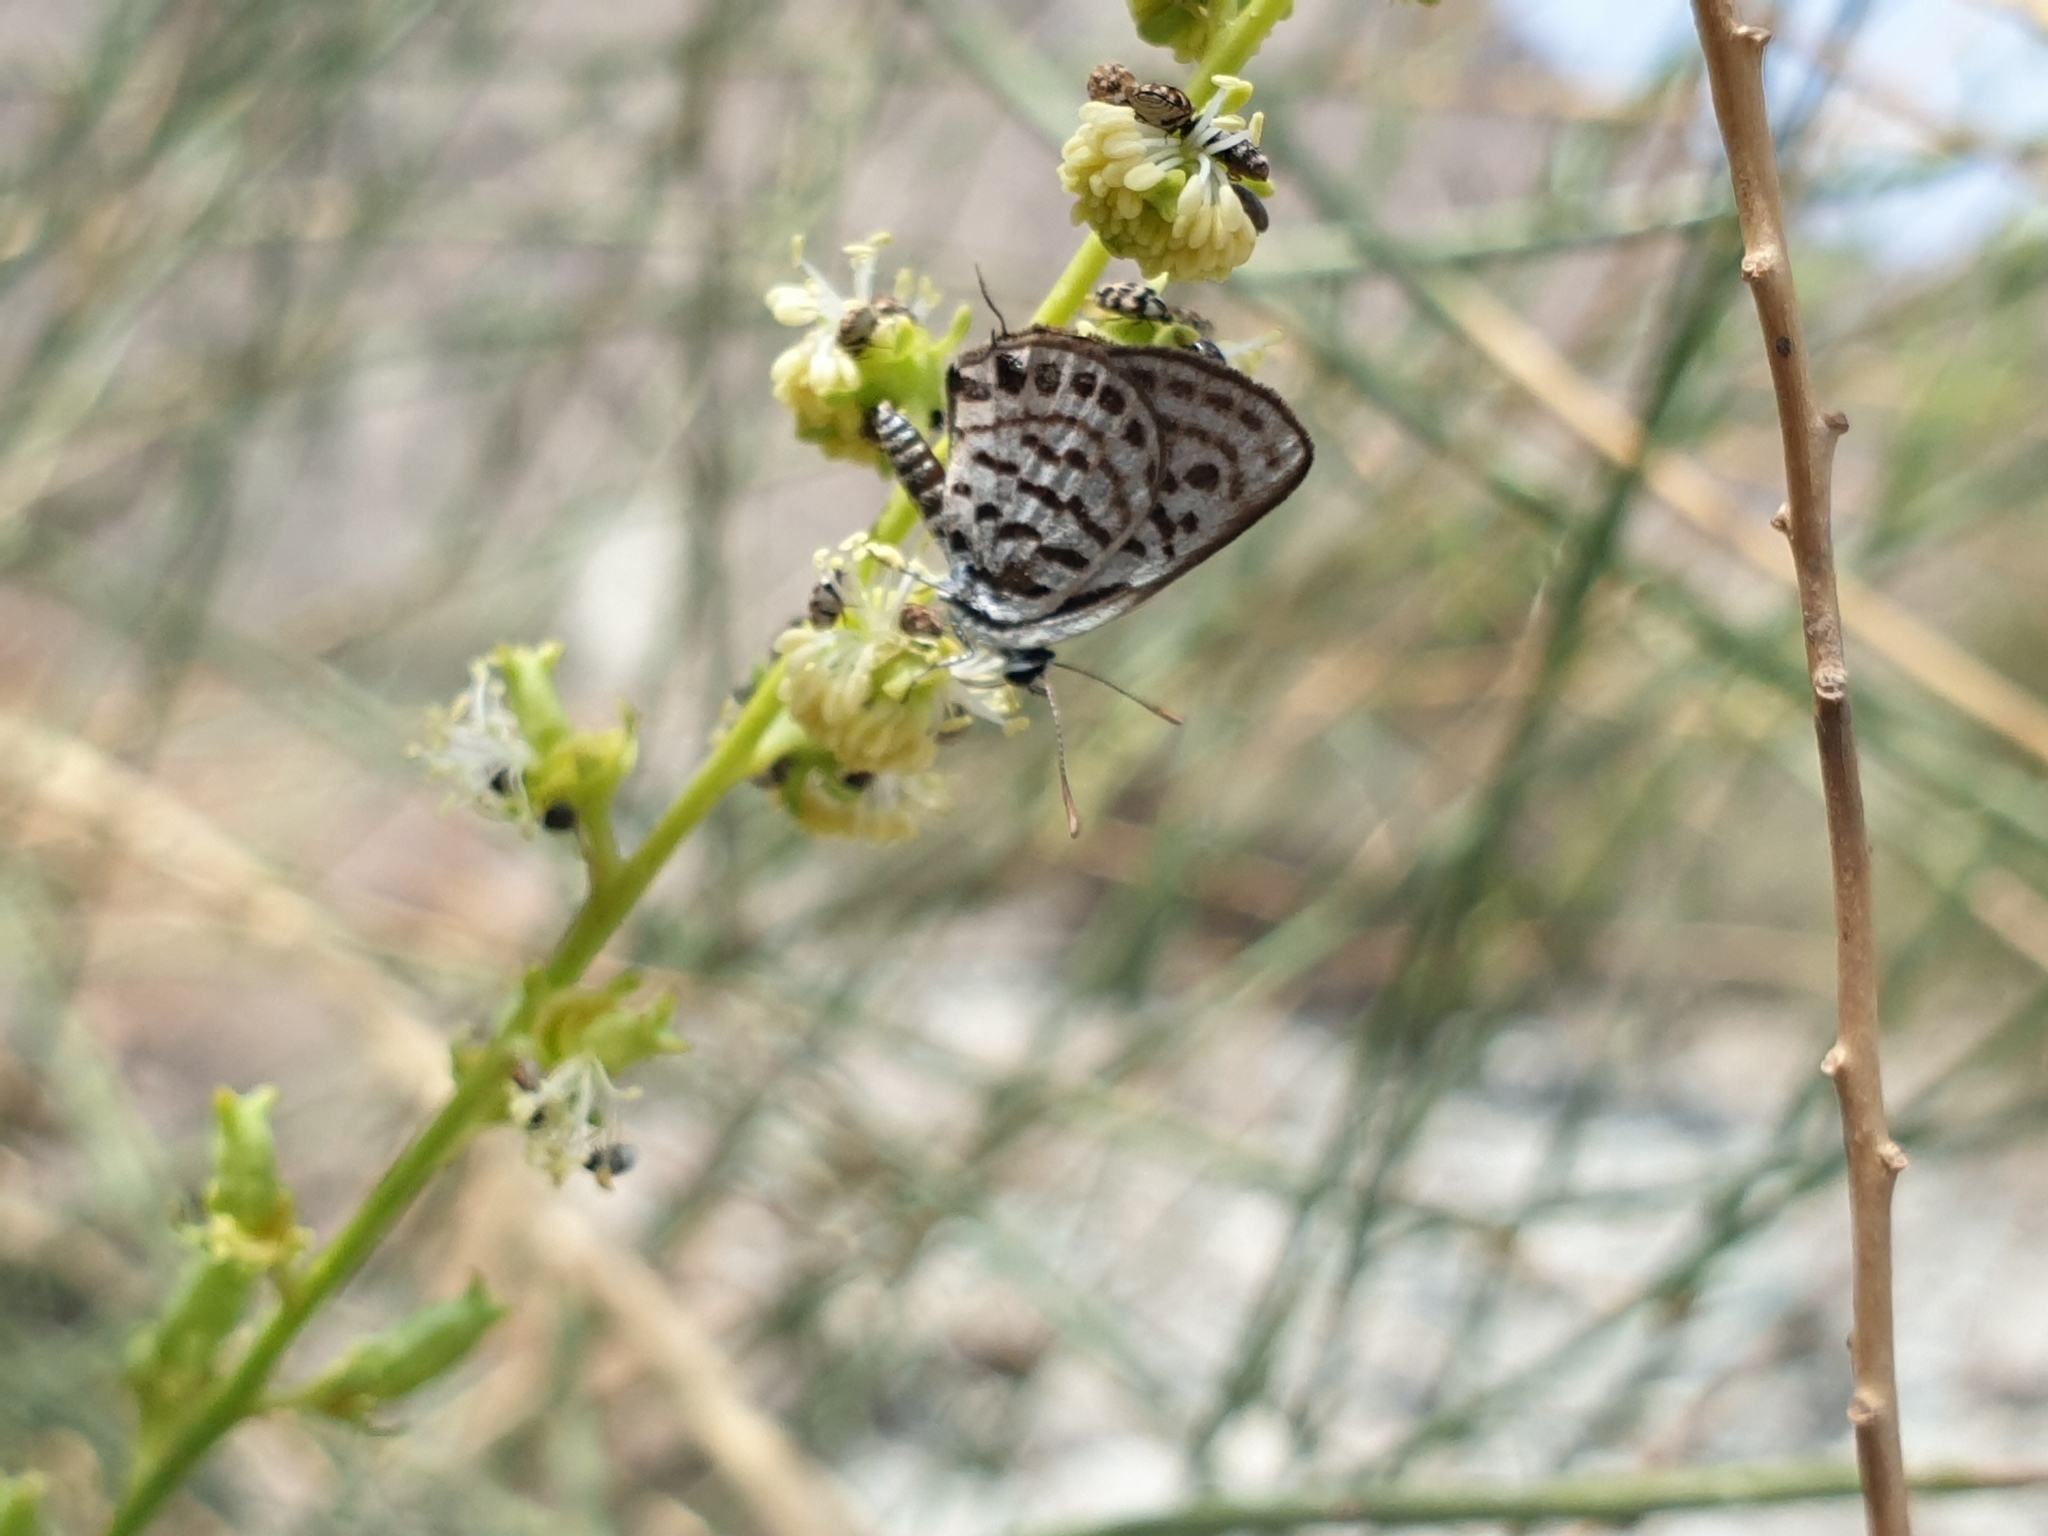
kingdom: Animalia
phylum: Arthropoda
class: Insecta
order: Lepidoptera
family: Lycaenidae
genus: Tarucus
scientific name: Tarucus rosacea
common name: Mediterranean pierrot
